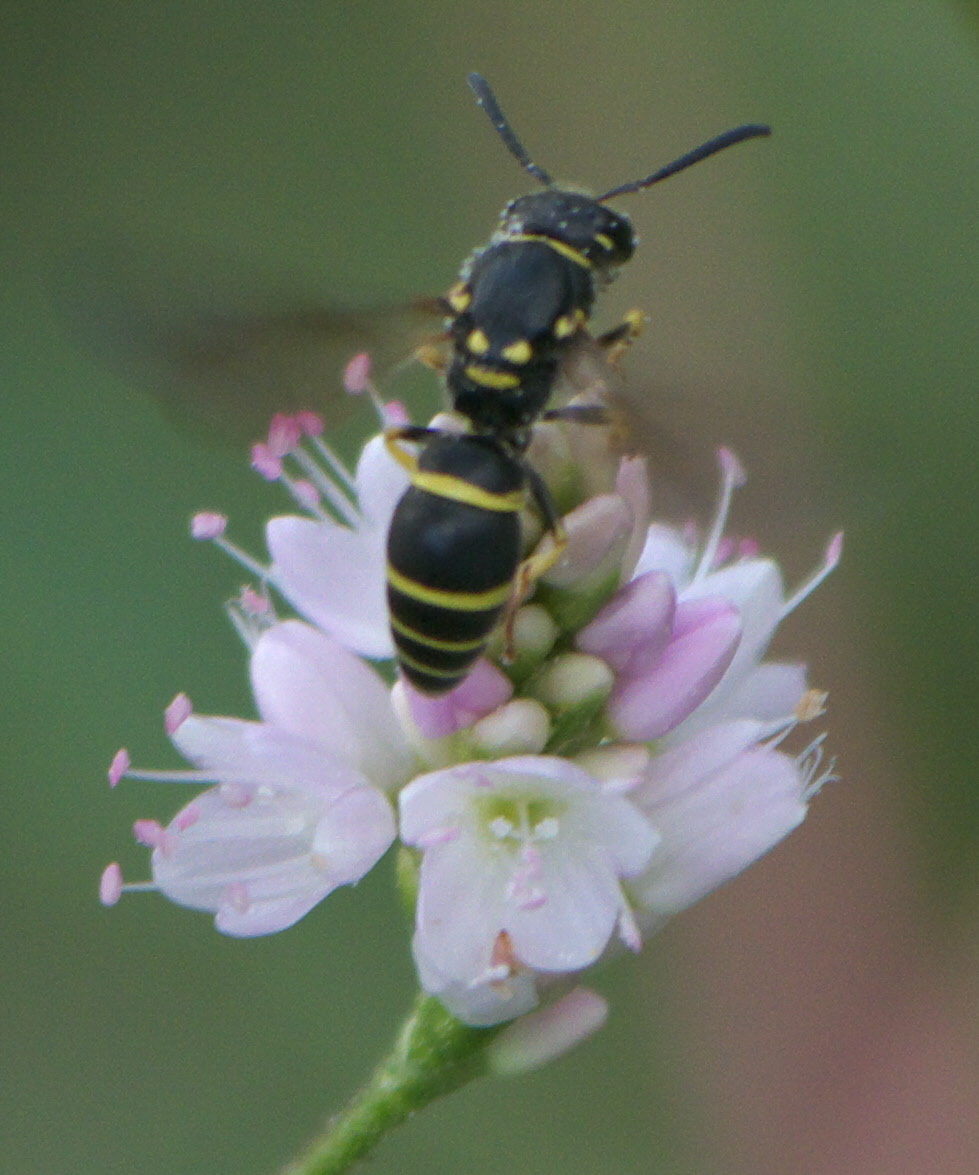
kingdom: Animalia
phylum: Arthropoda
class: Insecta
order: Hymenoptera
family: Vespidae
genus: Ancistrocerus
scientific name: Ancistrocerus adiabatus
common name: Bramble mason wasp
